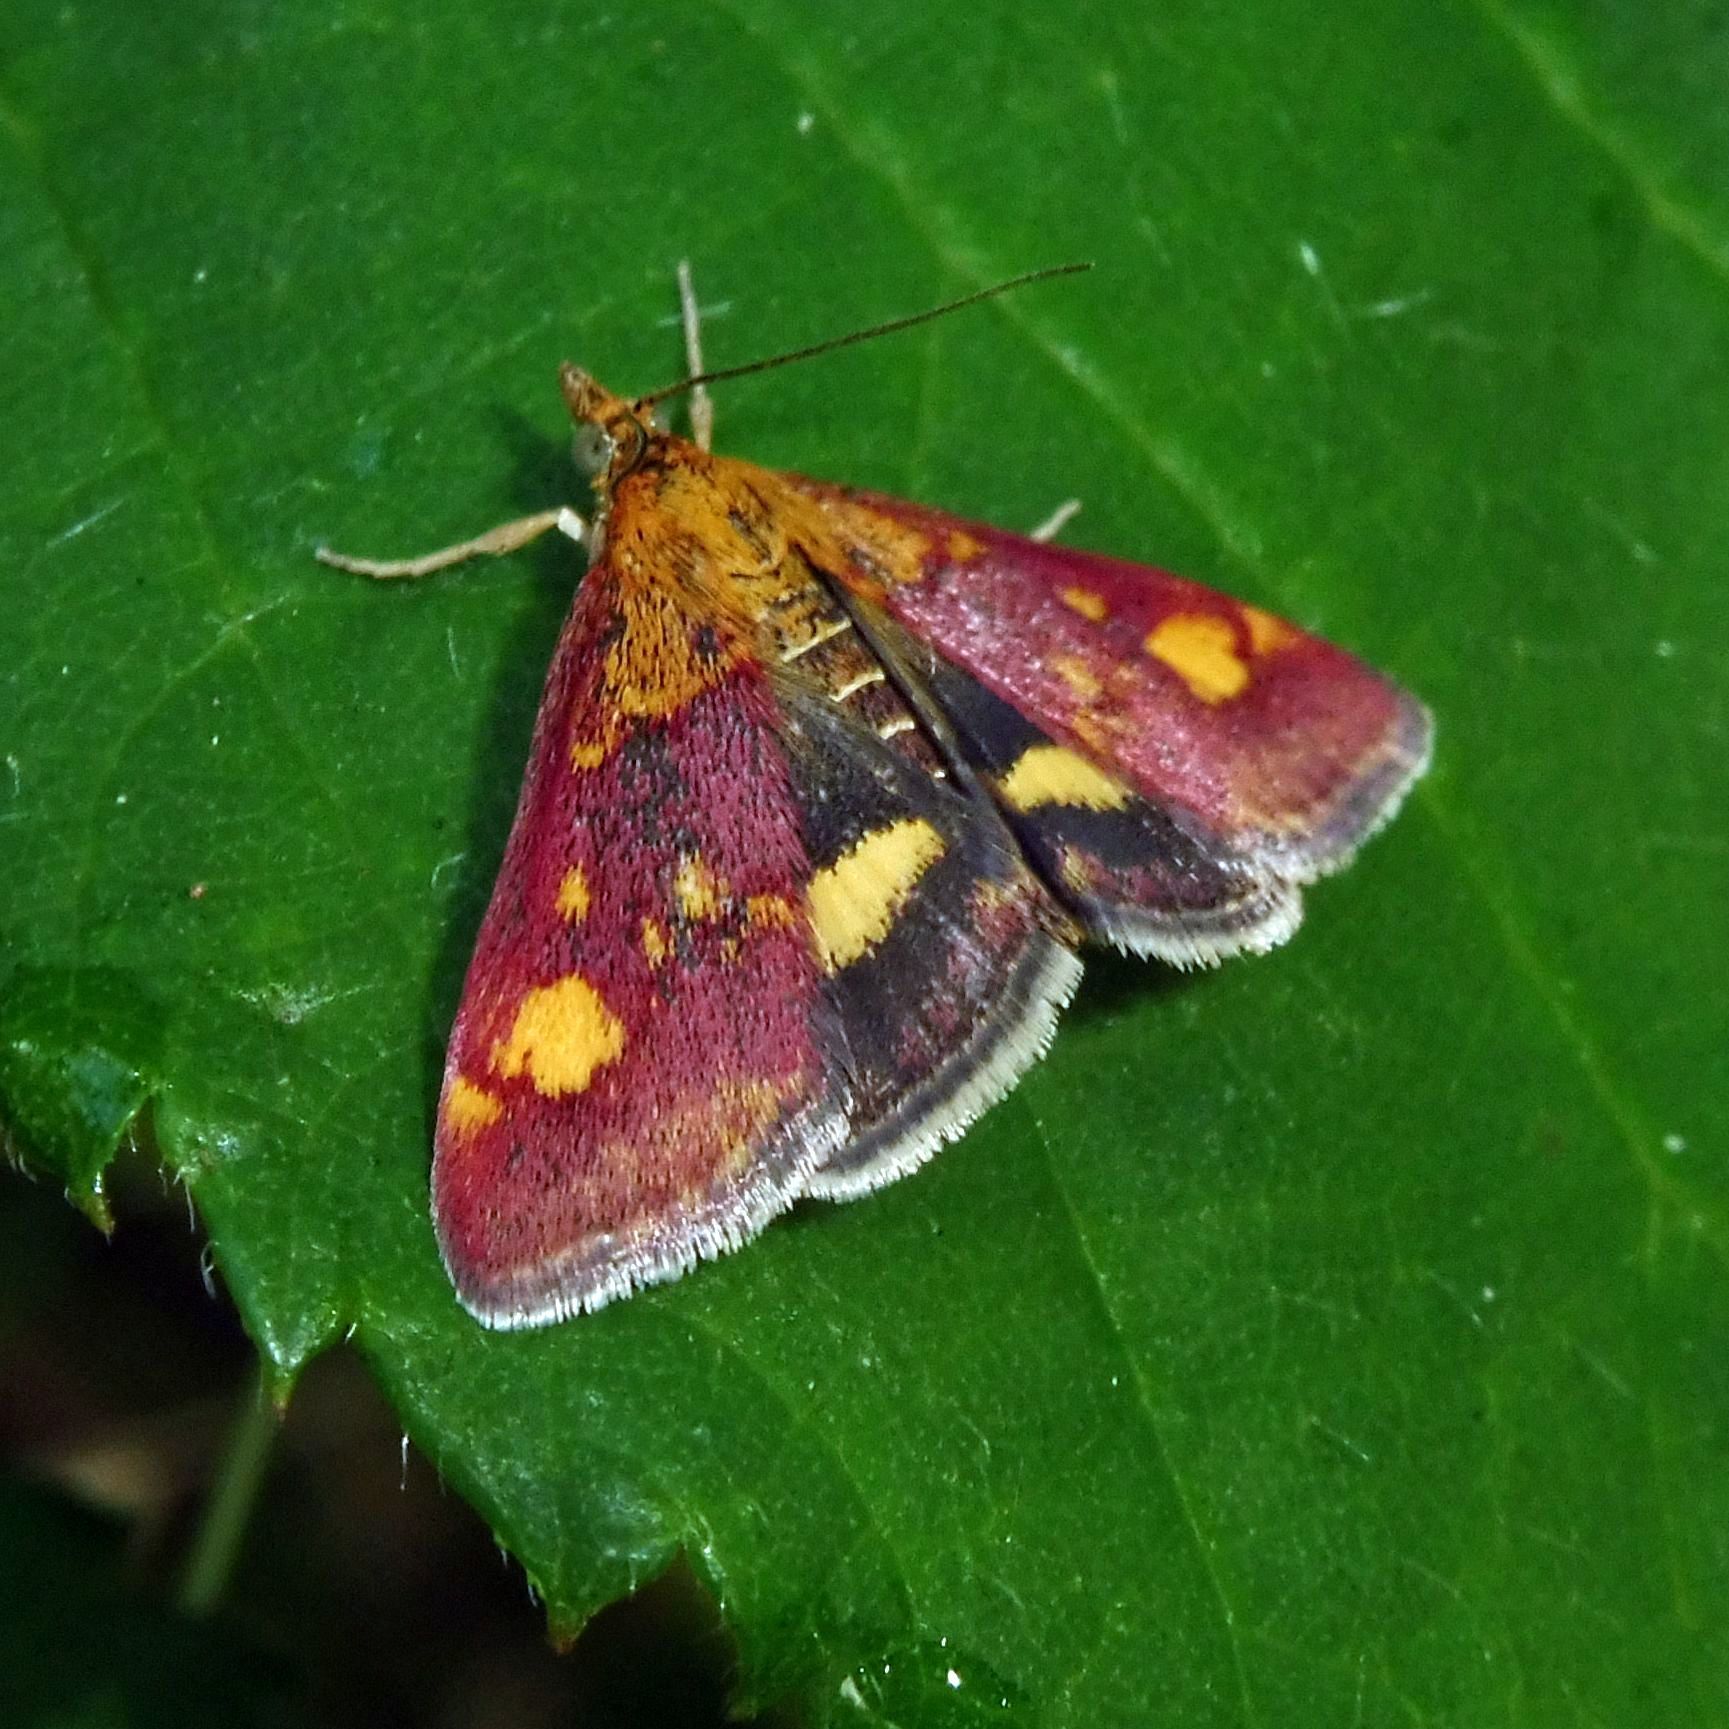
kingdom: Animalia
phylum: Arthropoda
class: Insecta
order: Lepidoptera
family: Crambidae
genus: Pyrausta
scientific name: Pyrausta aurata
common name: Small purple & gold
